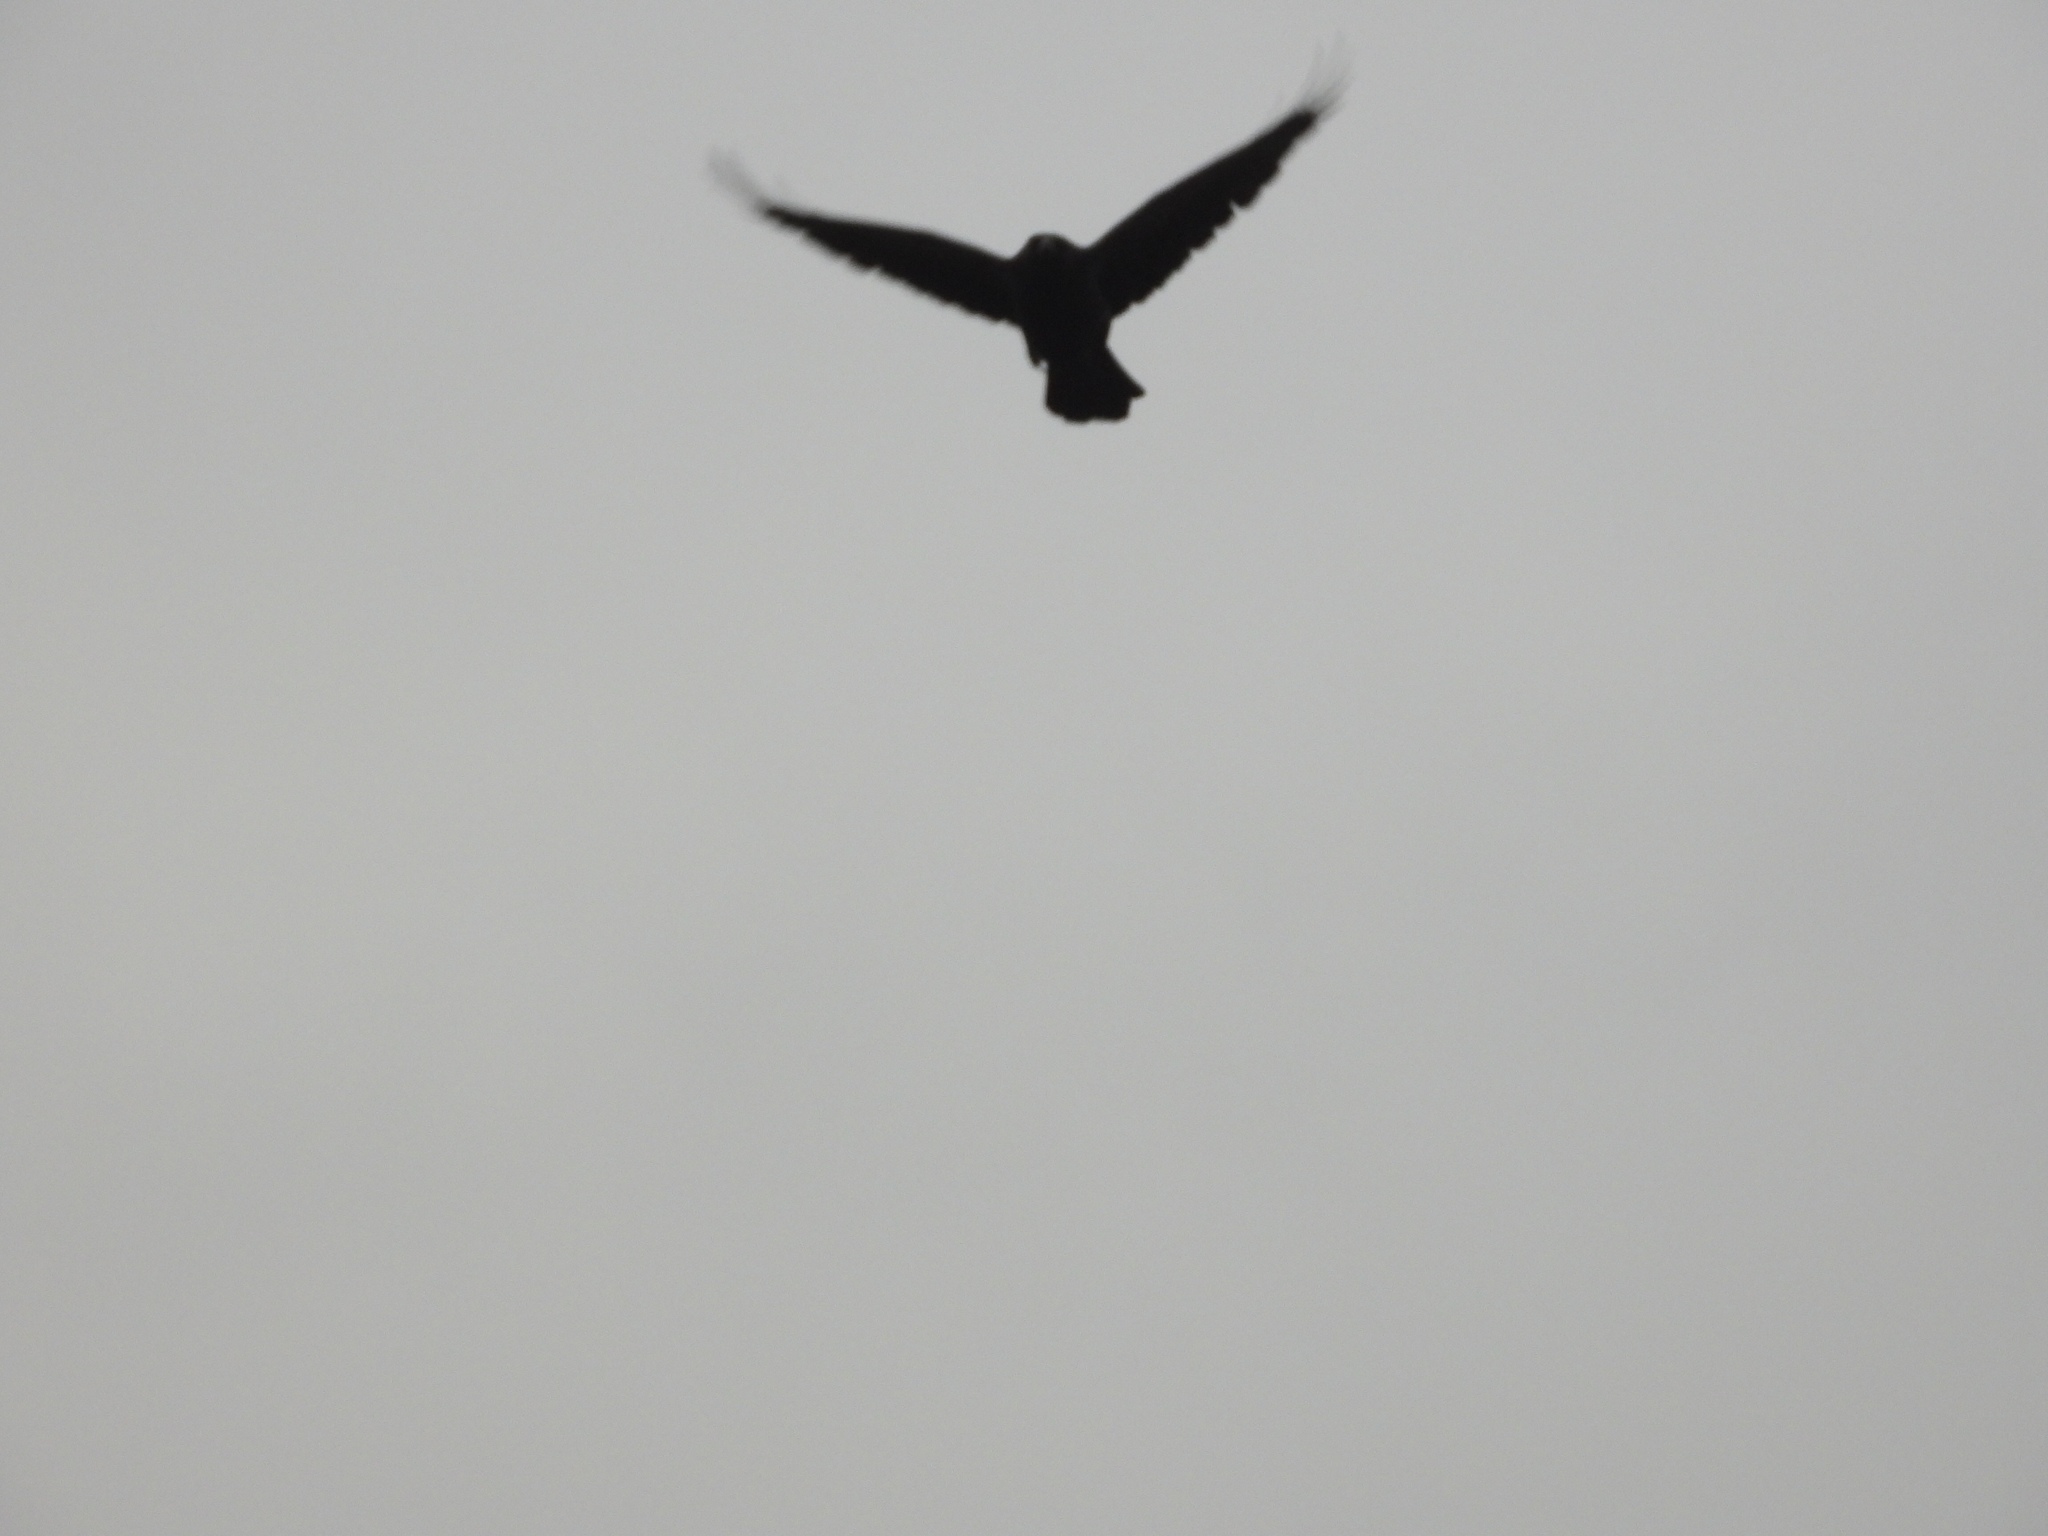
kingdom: Animalia
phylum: Chordata
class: Aves
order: Passeriformes
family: Corvidae
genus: Corvus
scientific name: Corvus brachyrhynchos
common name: American crow
